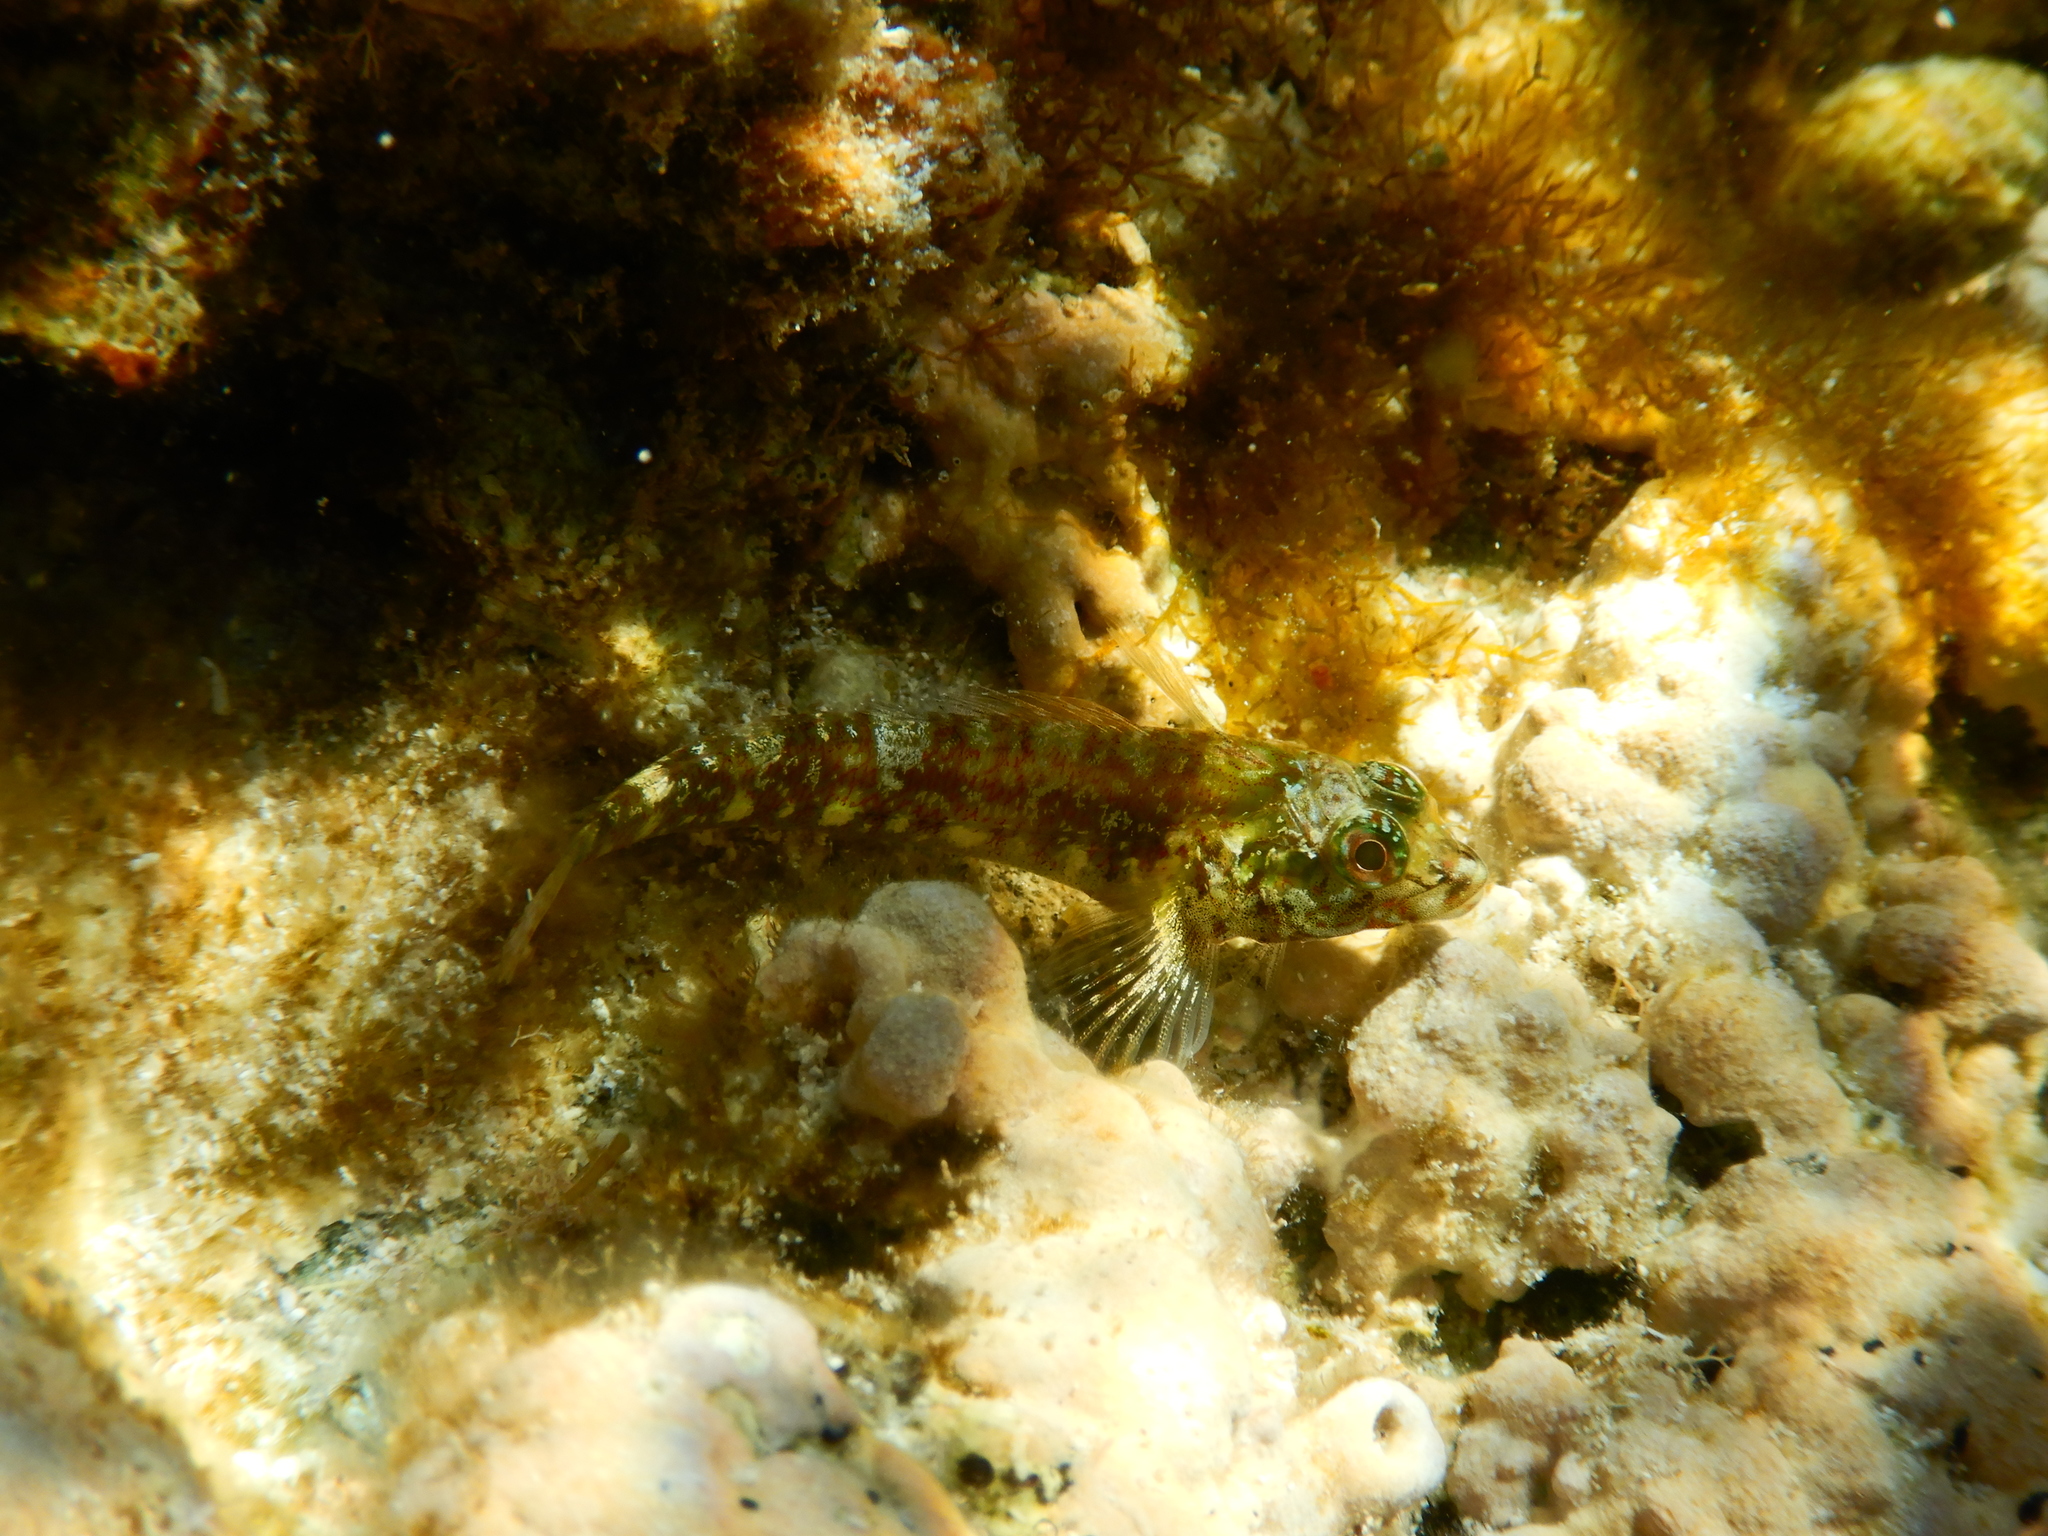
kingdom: Animalia
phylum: Chordata
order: Perciformes
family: Tripterygiidae
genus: Helcogramma
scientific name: Helcogramma decurrens
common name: Threefin
